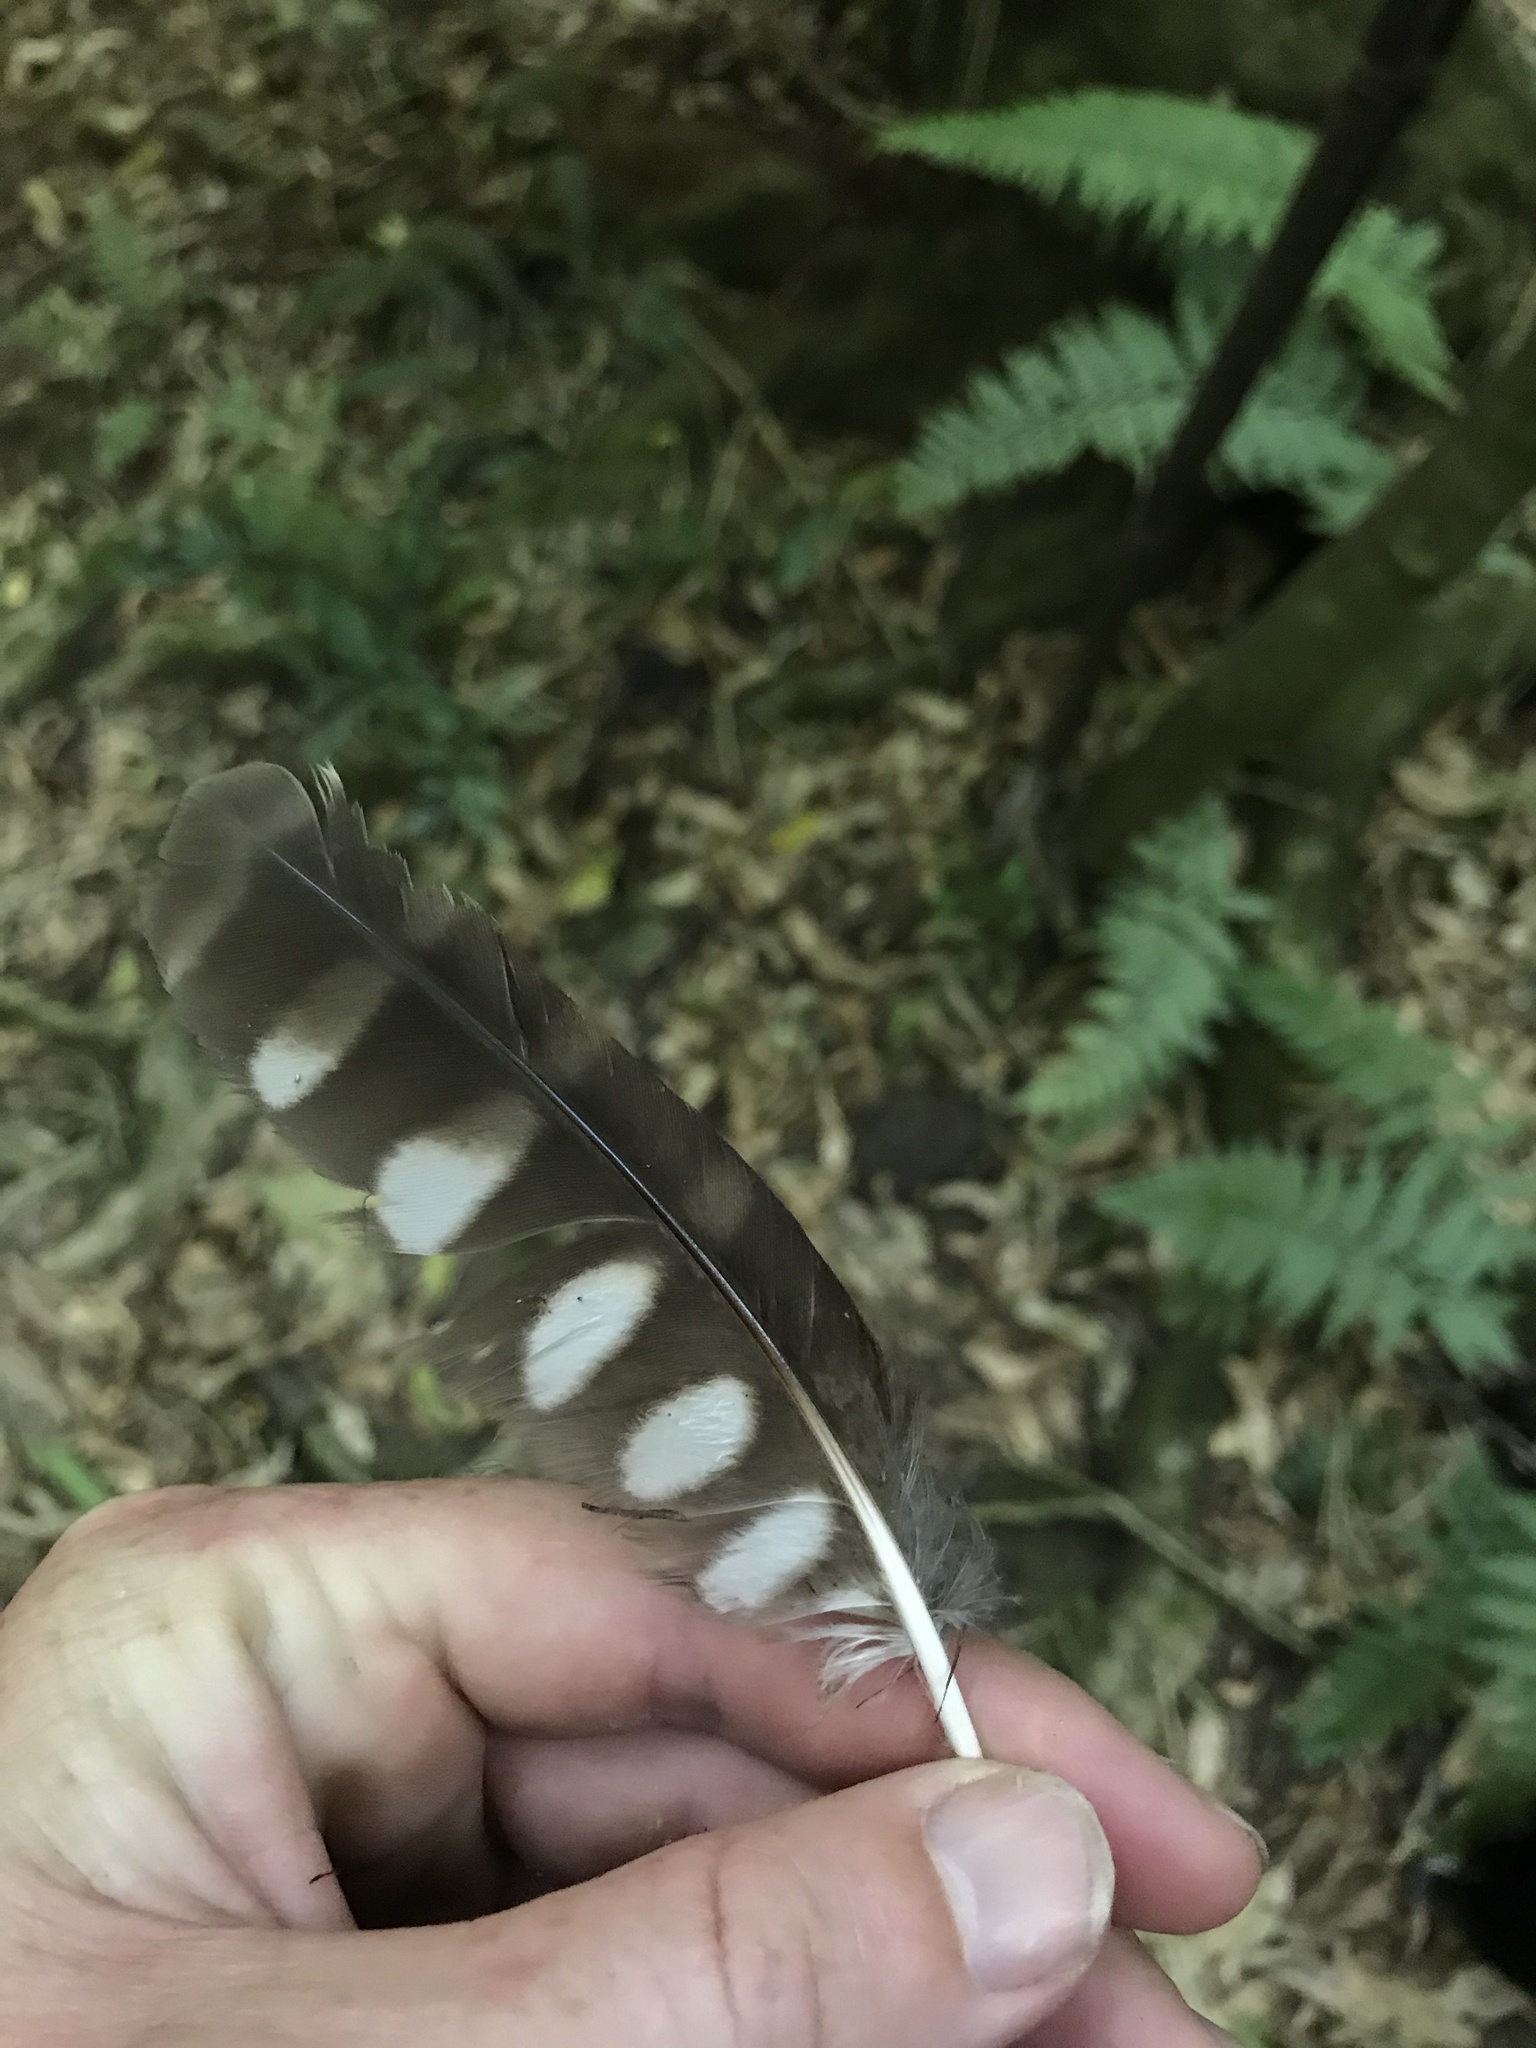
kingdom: Animalia
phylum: Chordata
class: Aves
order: Strigiformes
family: Strigidae
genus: Ninox
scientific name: Ninox novaeseelandiae
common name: Morepork
